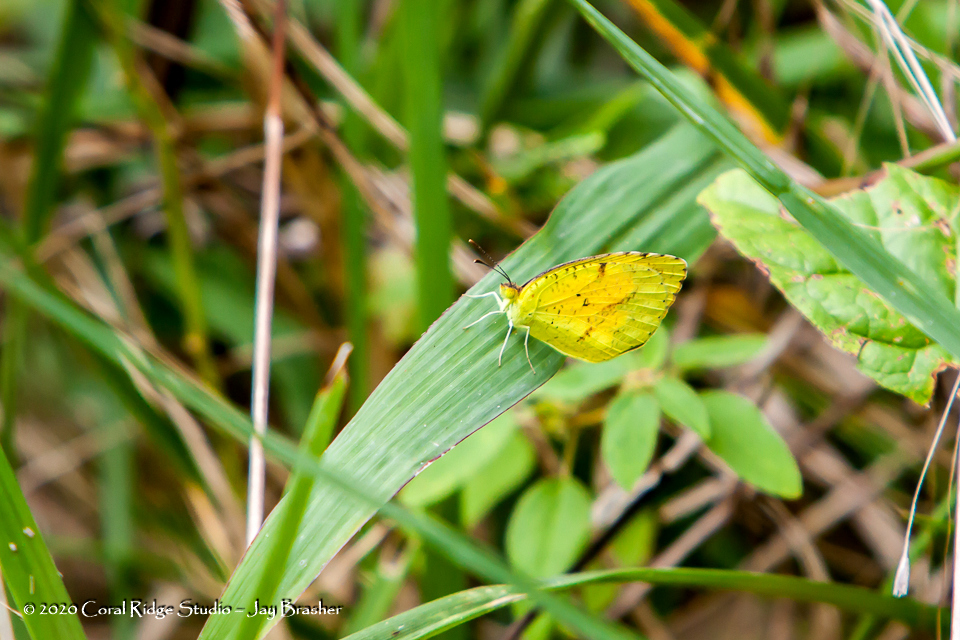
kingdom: Animalia
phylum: Arthropoda
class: Insecta
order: Lepidoptera
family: Pieridae
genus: Abaeis
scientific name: Abaeis nicippe
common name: Sleepy orange
